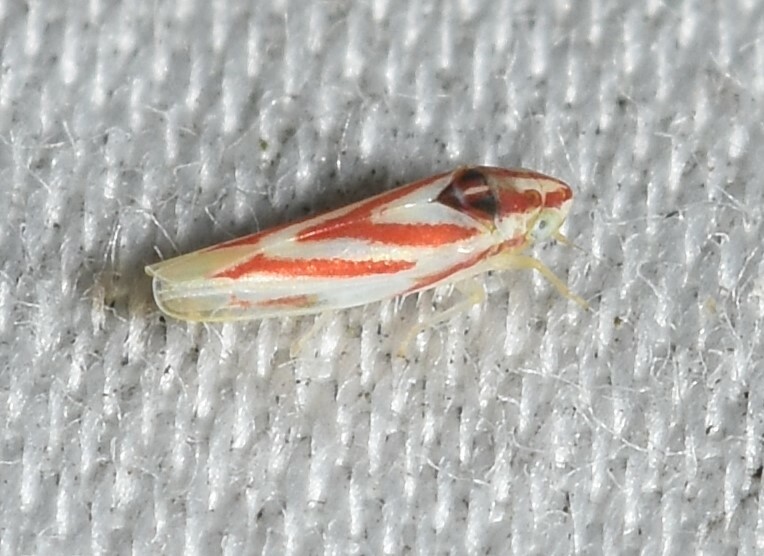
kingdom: Animalia
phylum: Arthropoda
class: Insecta
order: Hemiptera
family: Cicadellidae
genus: Erythridula
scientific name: Erythridula noeva
